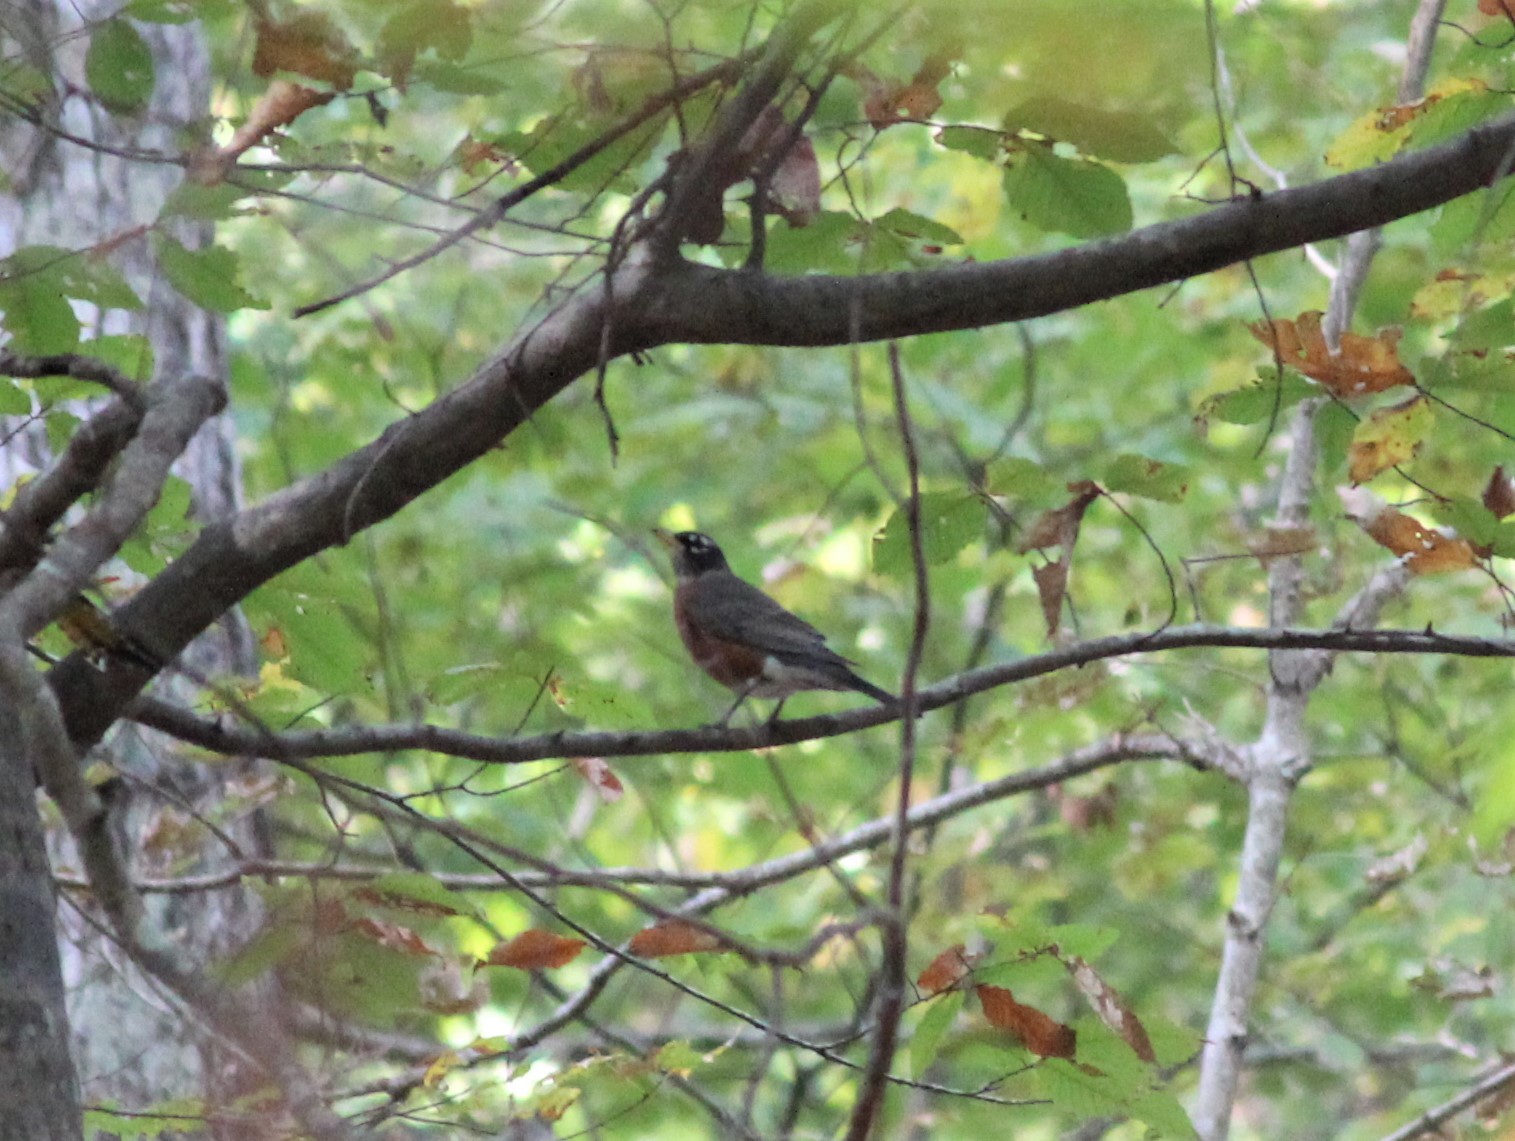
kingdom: Animalia
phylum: Chordata
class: Aves
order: Passeriformes
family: Turdidae
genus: Turdus
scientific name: Turdus migratorius
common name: American robin
